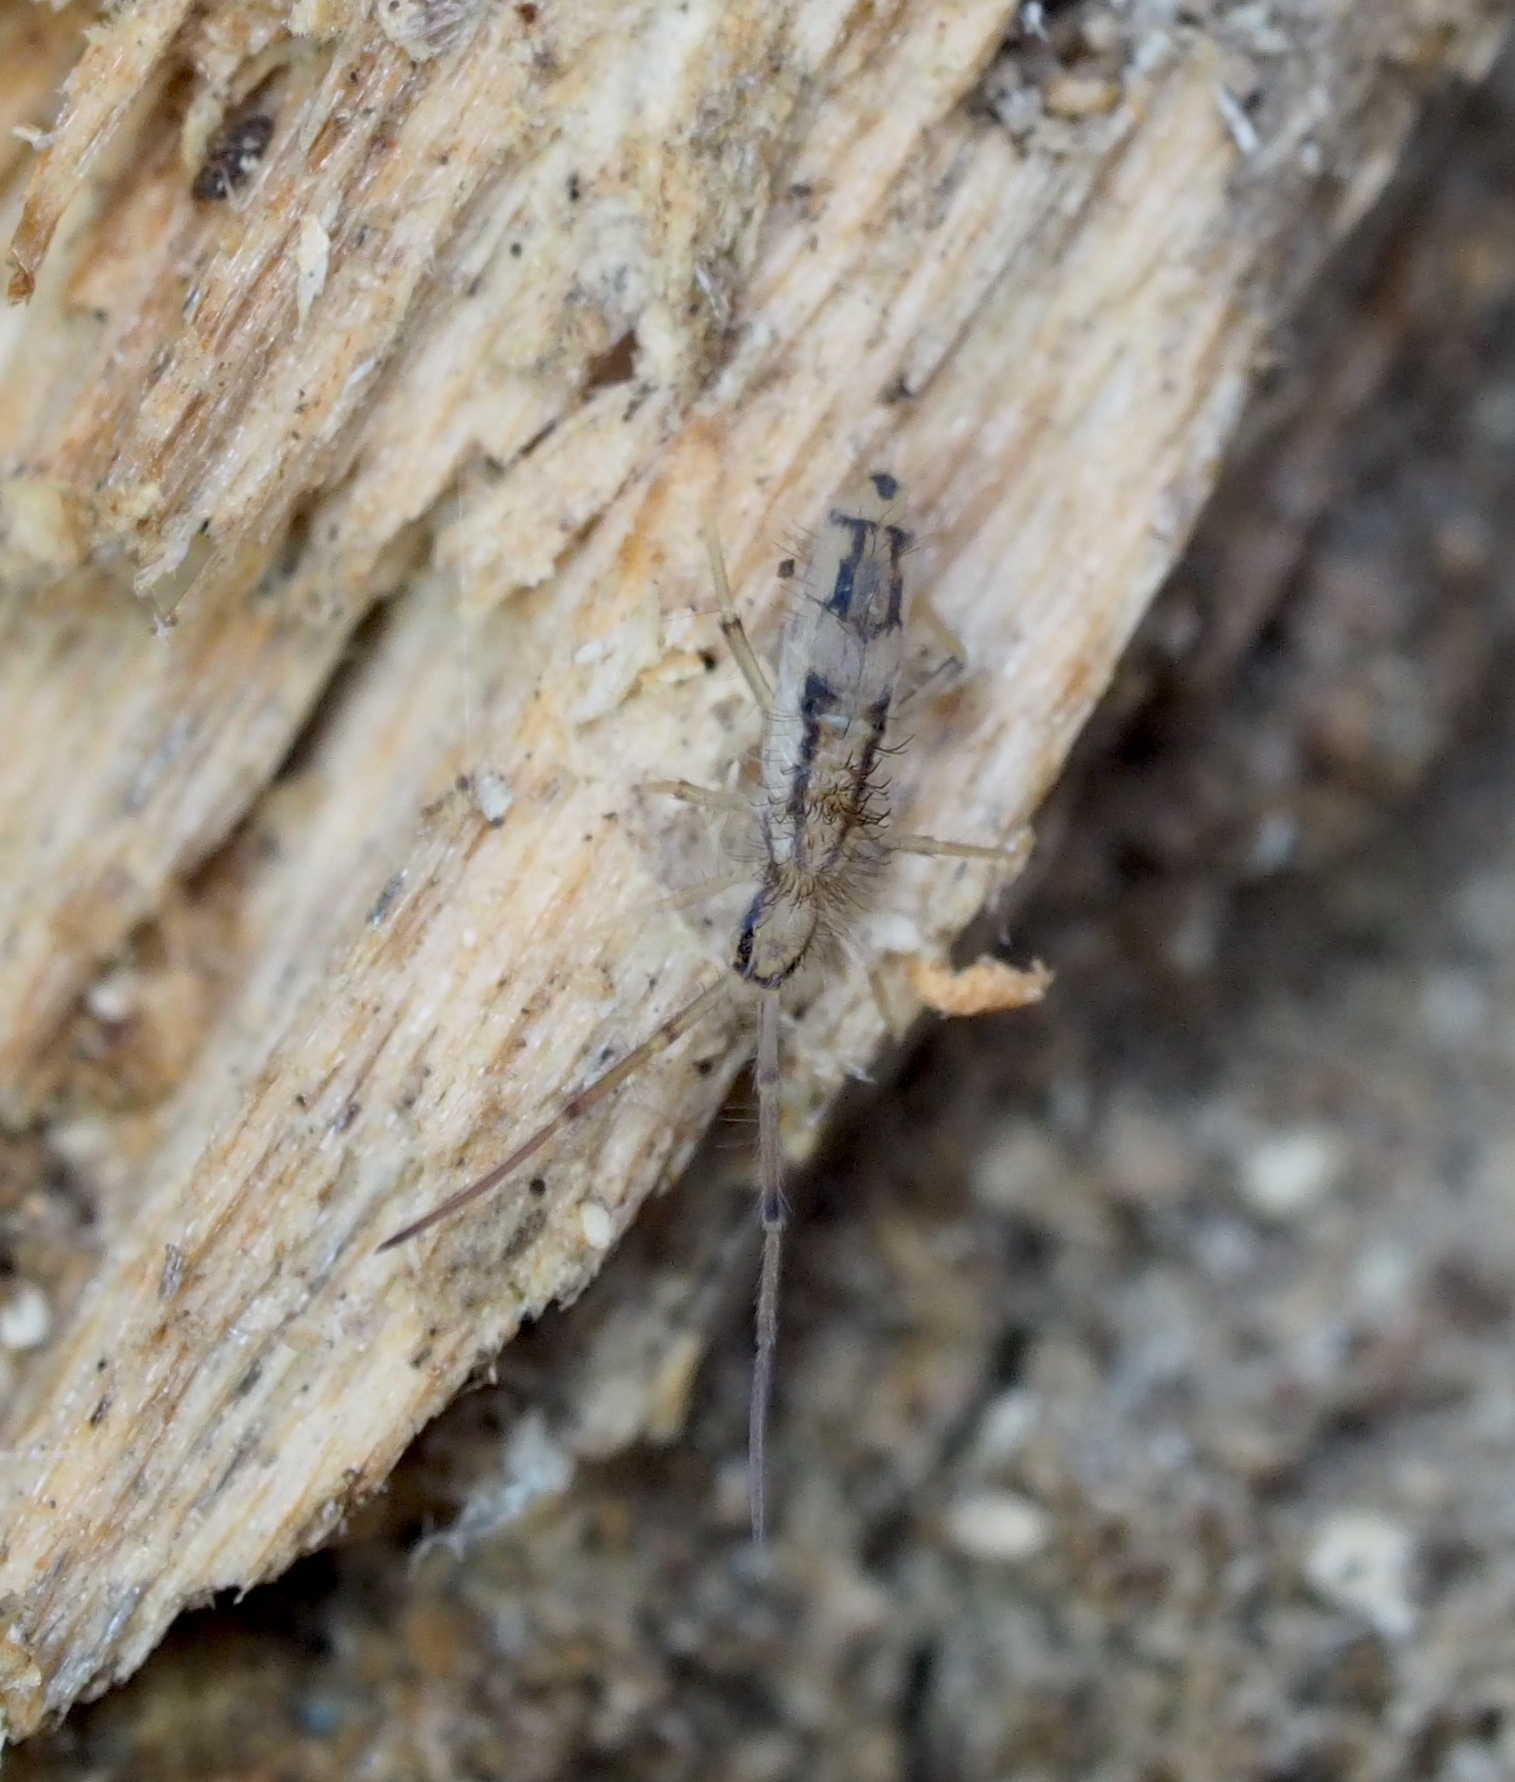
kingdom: Animalia
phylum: Arthropoda
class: Collembola
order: Entomobryomorpha
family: Entomobryidae
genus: Entomobrya
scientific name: Entomobrya muscorum
